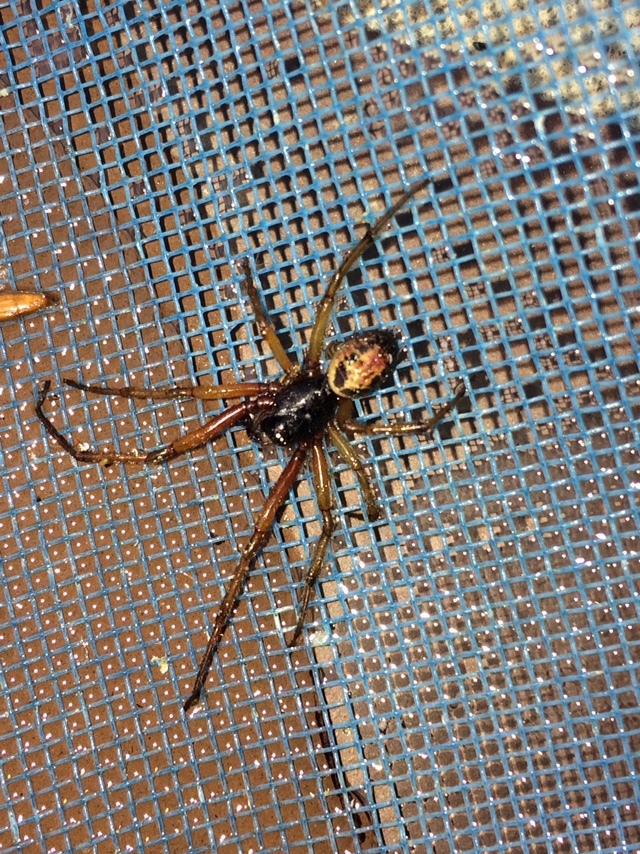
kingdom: Animalia
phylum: Arthropoda
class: Arachnida
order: Araneae
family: Theridiidae
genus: Steatoda
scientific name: Steatoda nobilis
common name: Cobweb weaver
